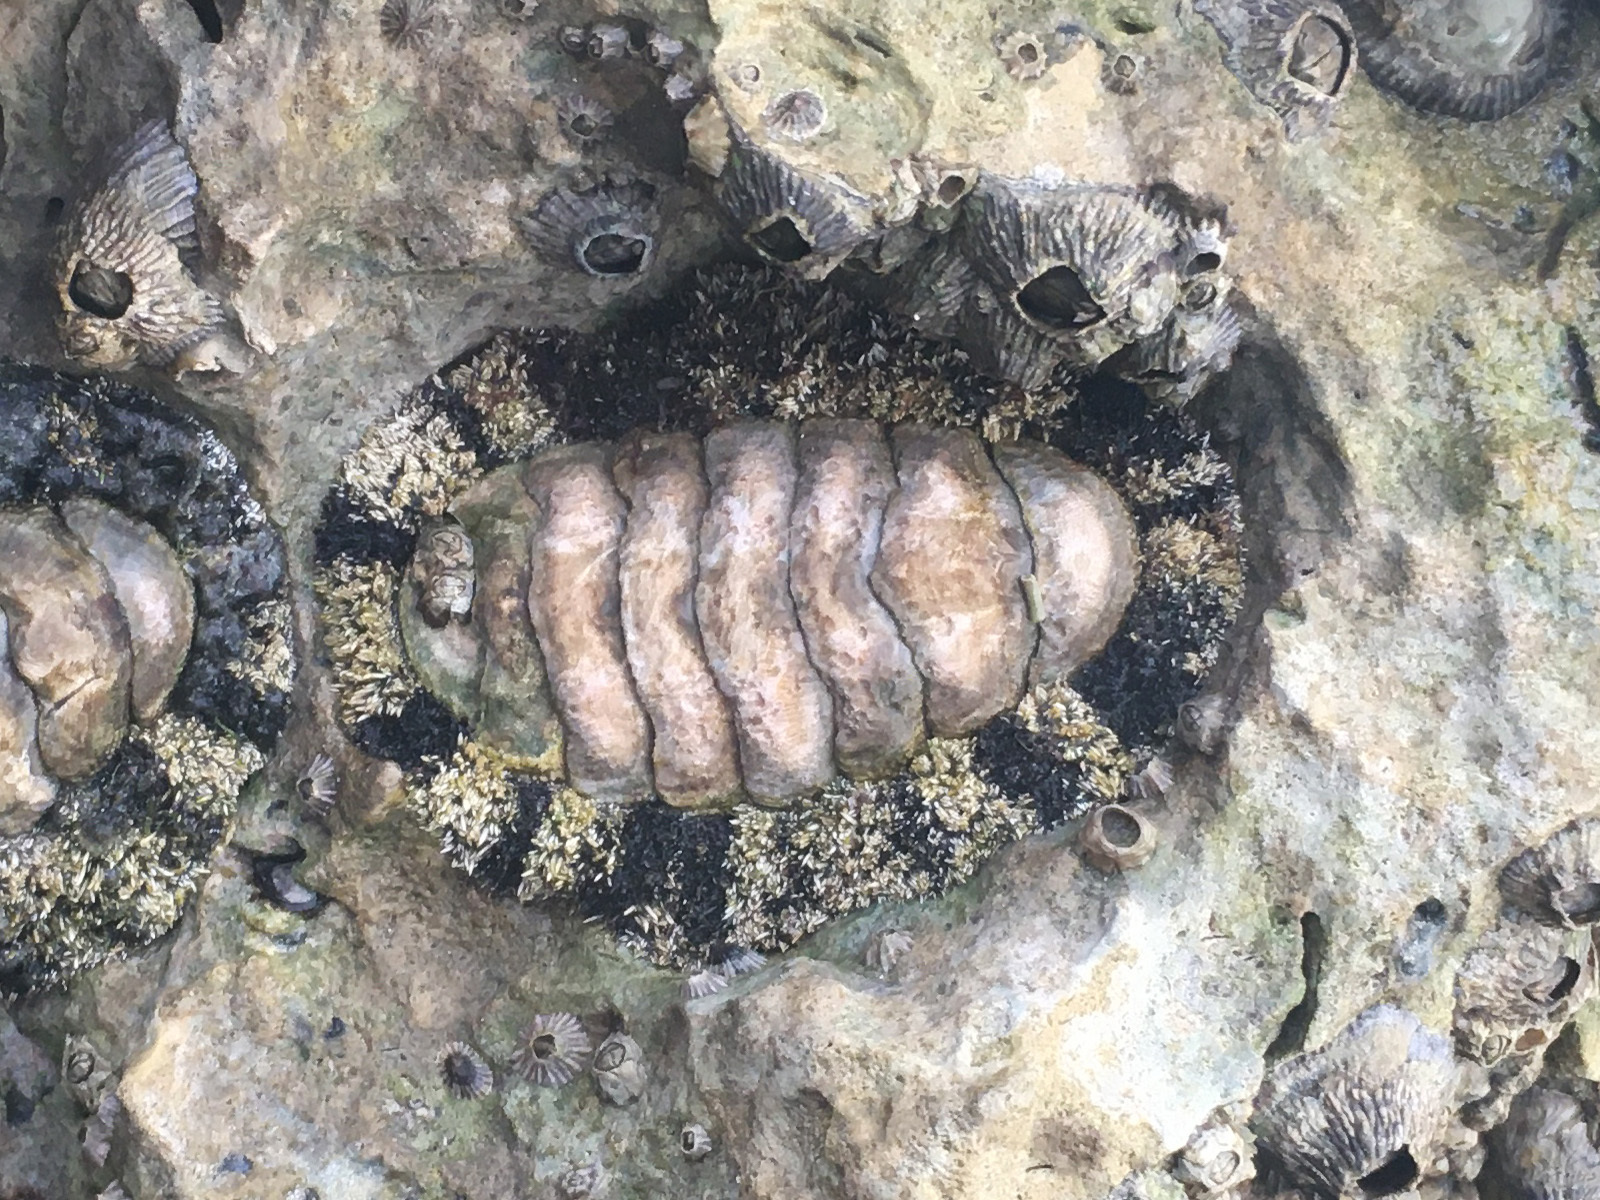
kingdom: Animalia
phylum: Mollusca
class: Polyplacophora
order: Chitonida
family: Chitonidae
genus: Acanthopleura
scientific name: Acanthopleura granulata
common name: West indian fuzzy chiton
